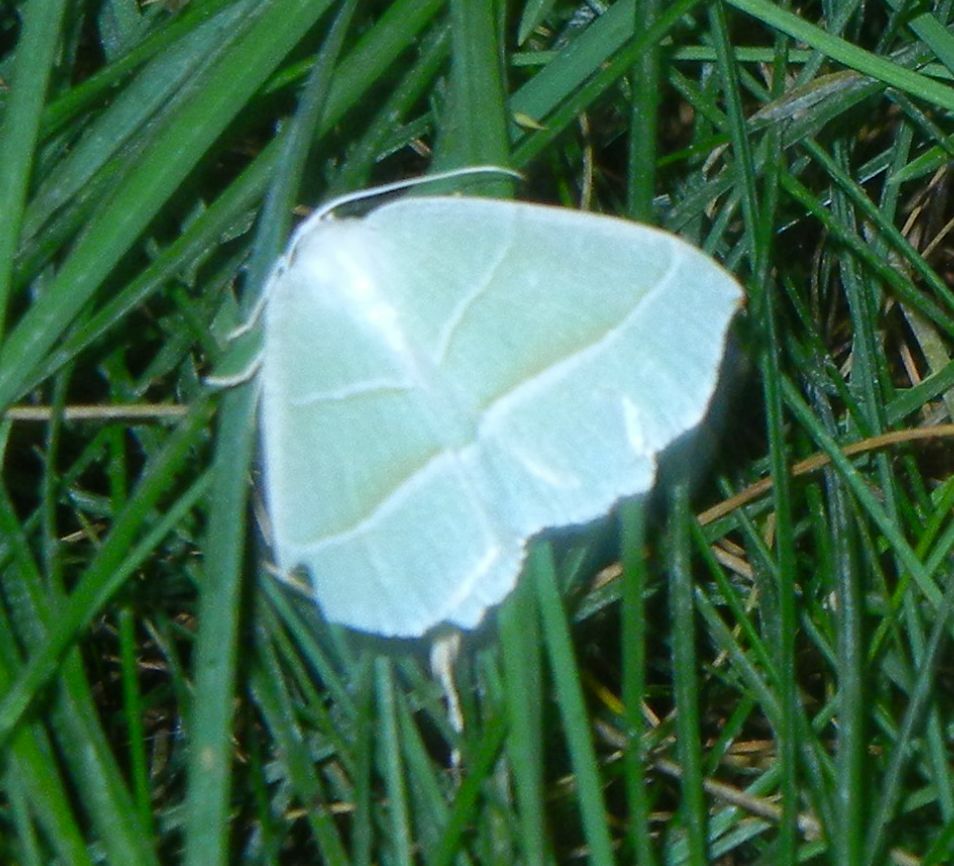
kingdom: Animalia
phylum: Arthropoda
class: Insecta
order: Lepidoptera
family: Geometridae
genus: Campaea
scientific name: Campaea margaritaria
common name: Light emerald
